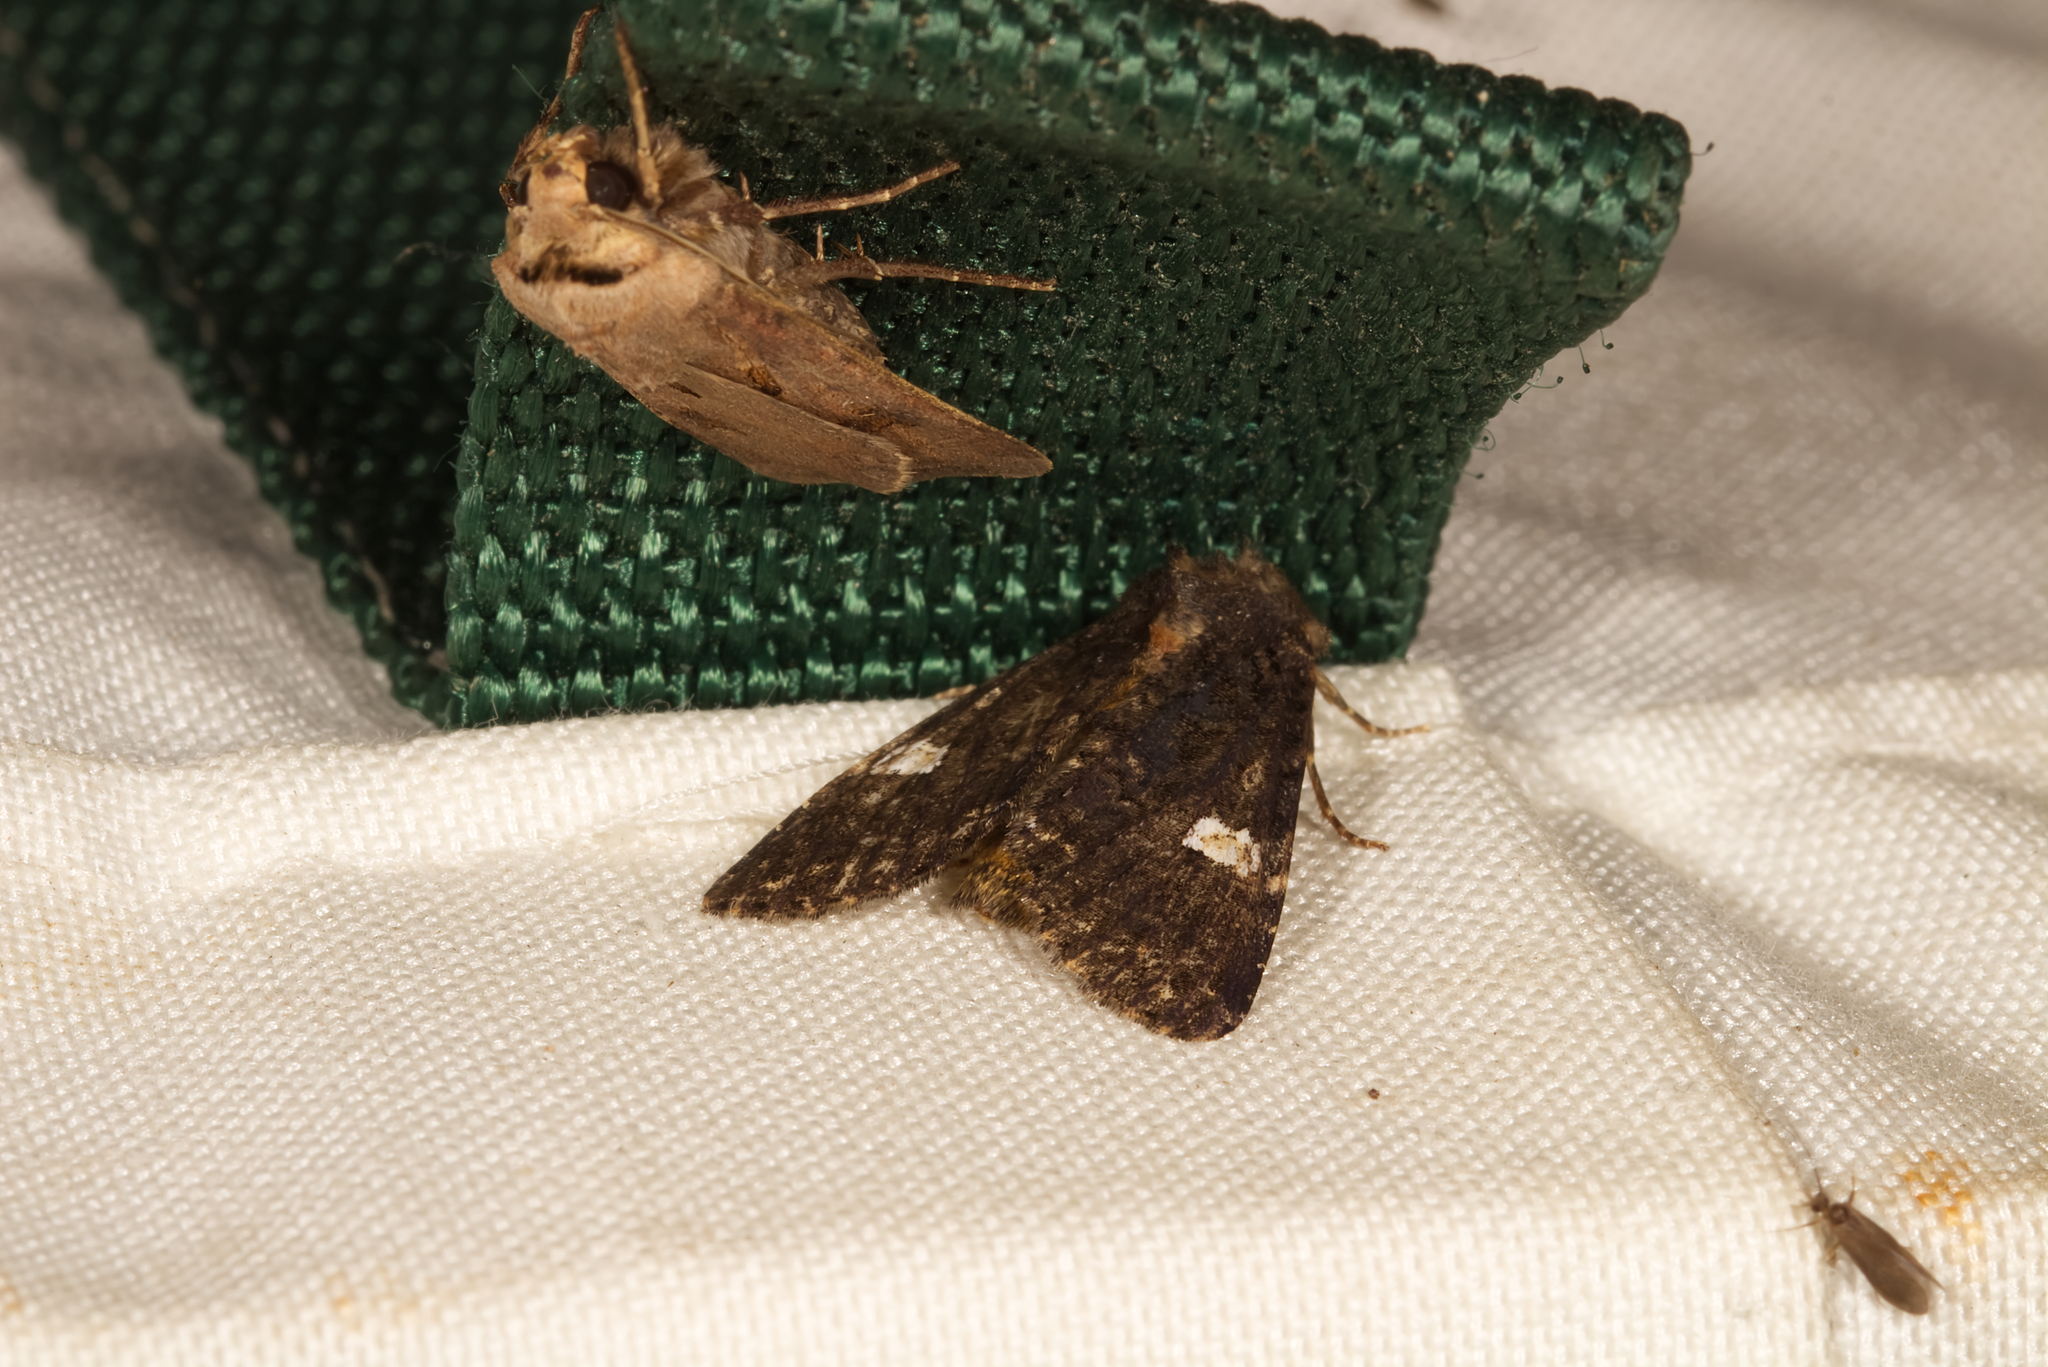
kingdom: Animalia
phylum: Arthropoda
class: Insecta
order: Lepidoptera
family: Noctuidae
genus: Agrotis
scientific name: Agrotis exclamationis
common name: Heart and dart
